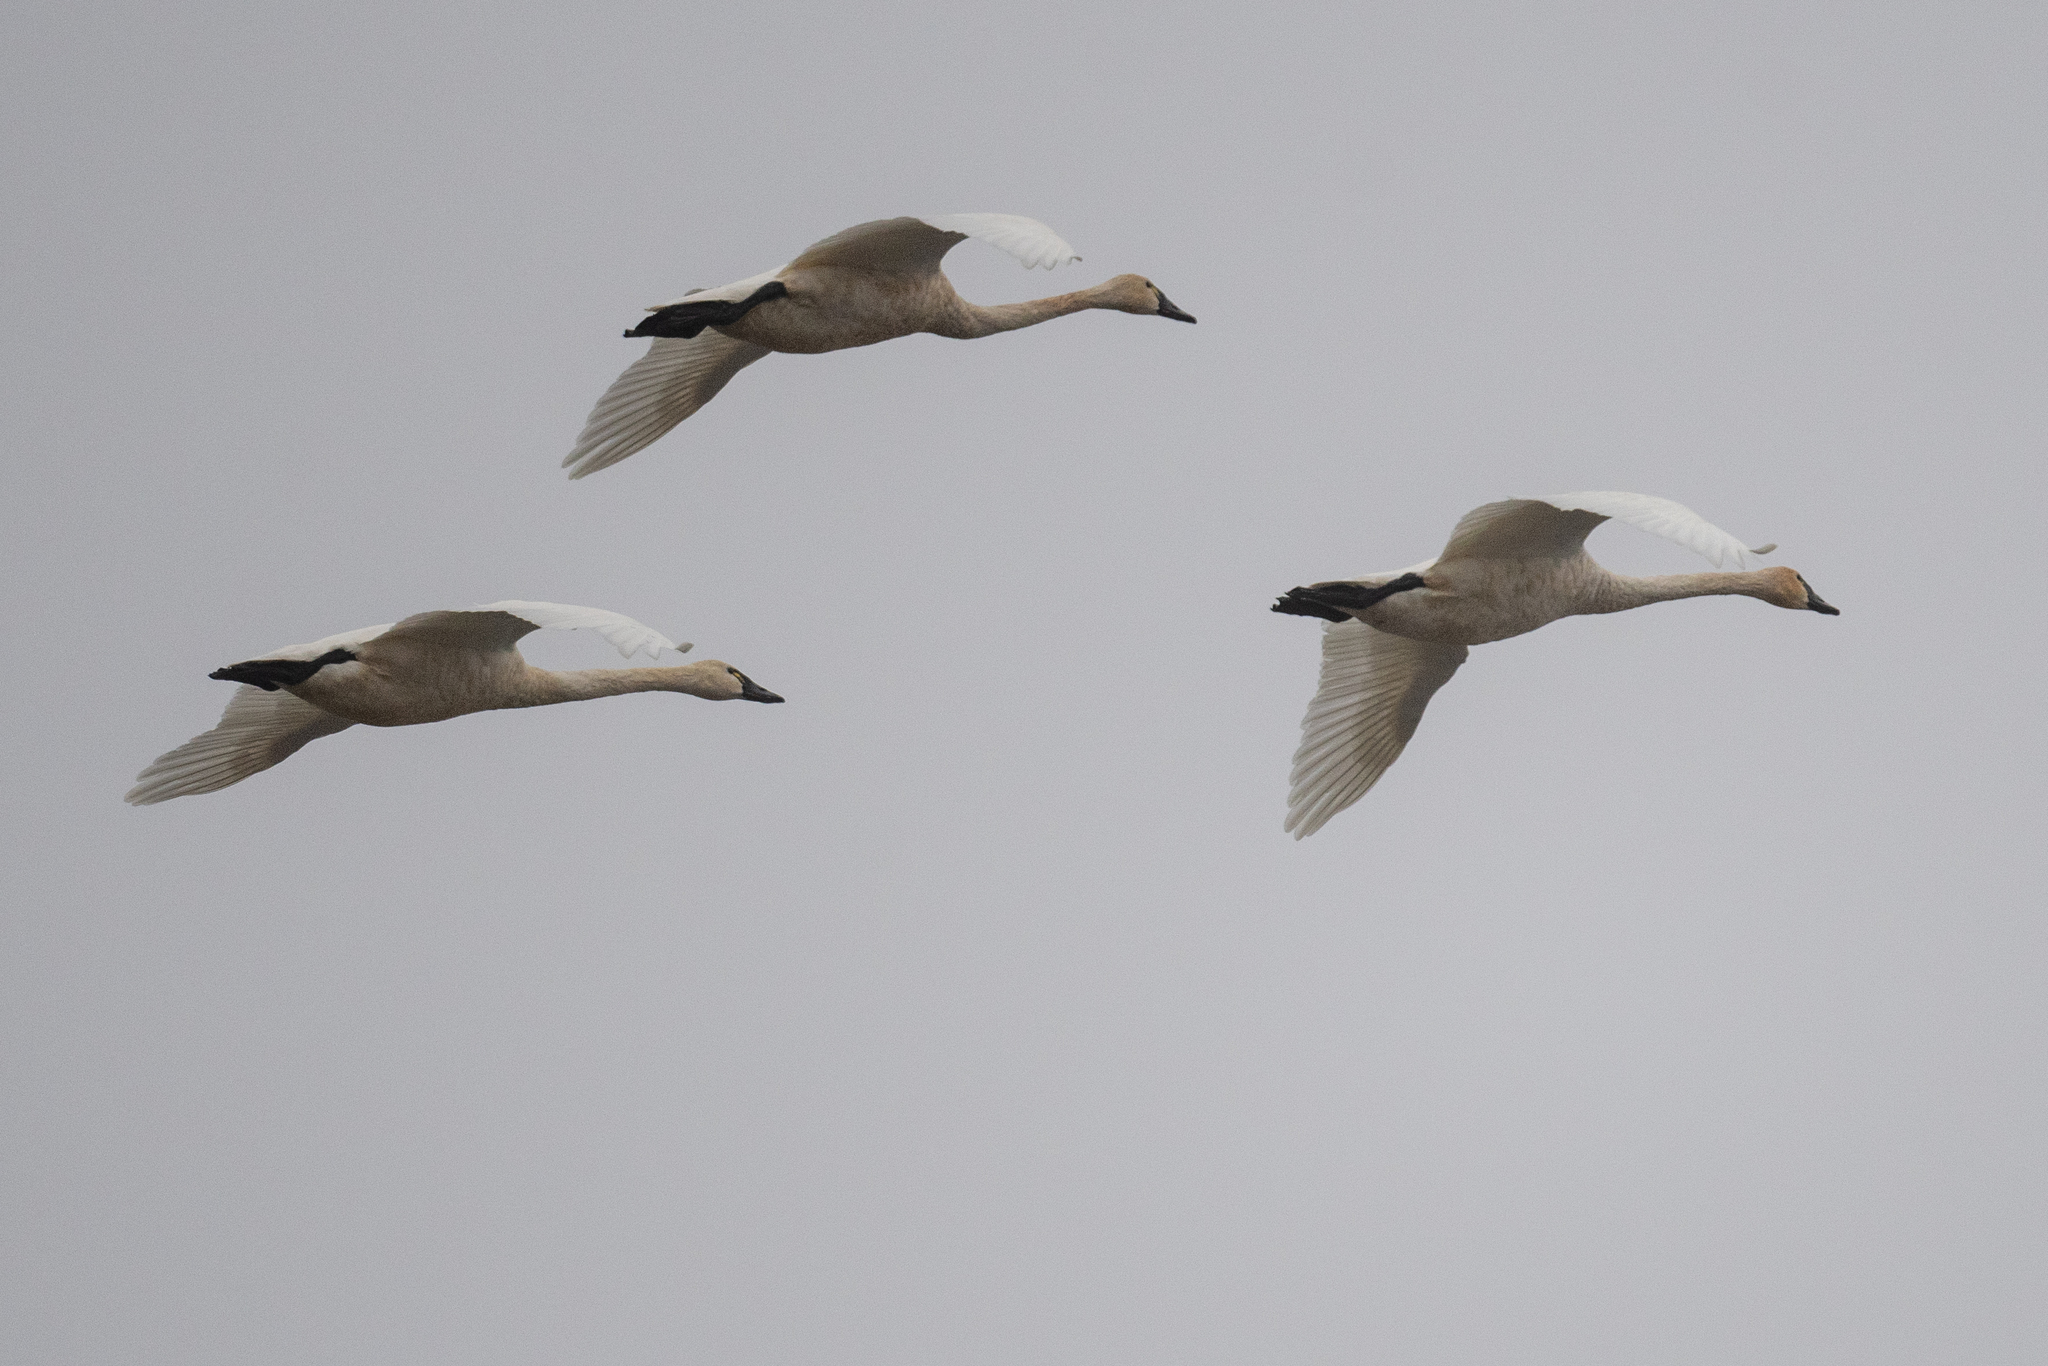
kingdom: Animalia
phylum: Chordata
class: Aves
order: Anseriformes
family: Anatidae
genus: Cygnus
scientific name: Cygnus columbianus
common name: Tundra swan
